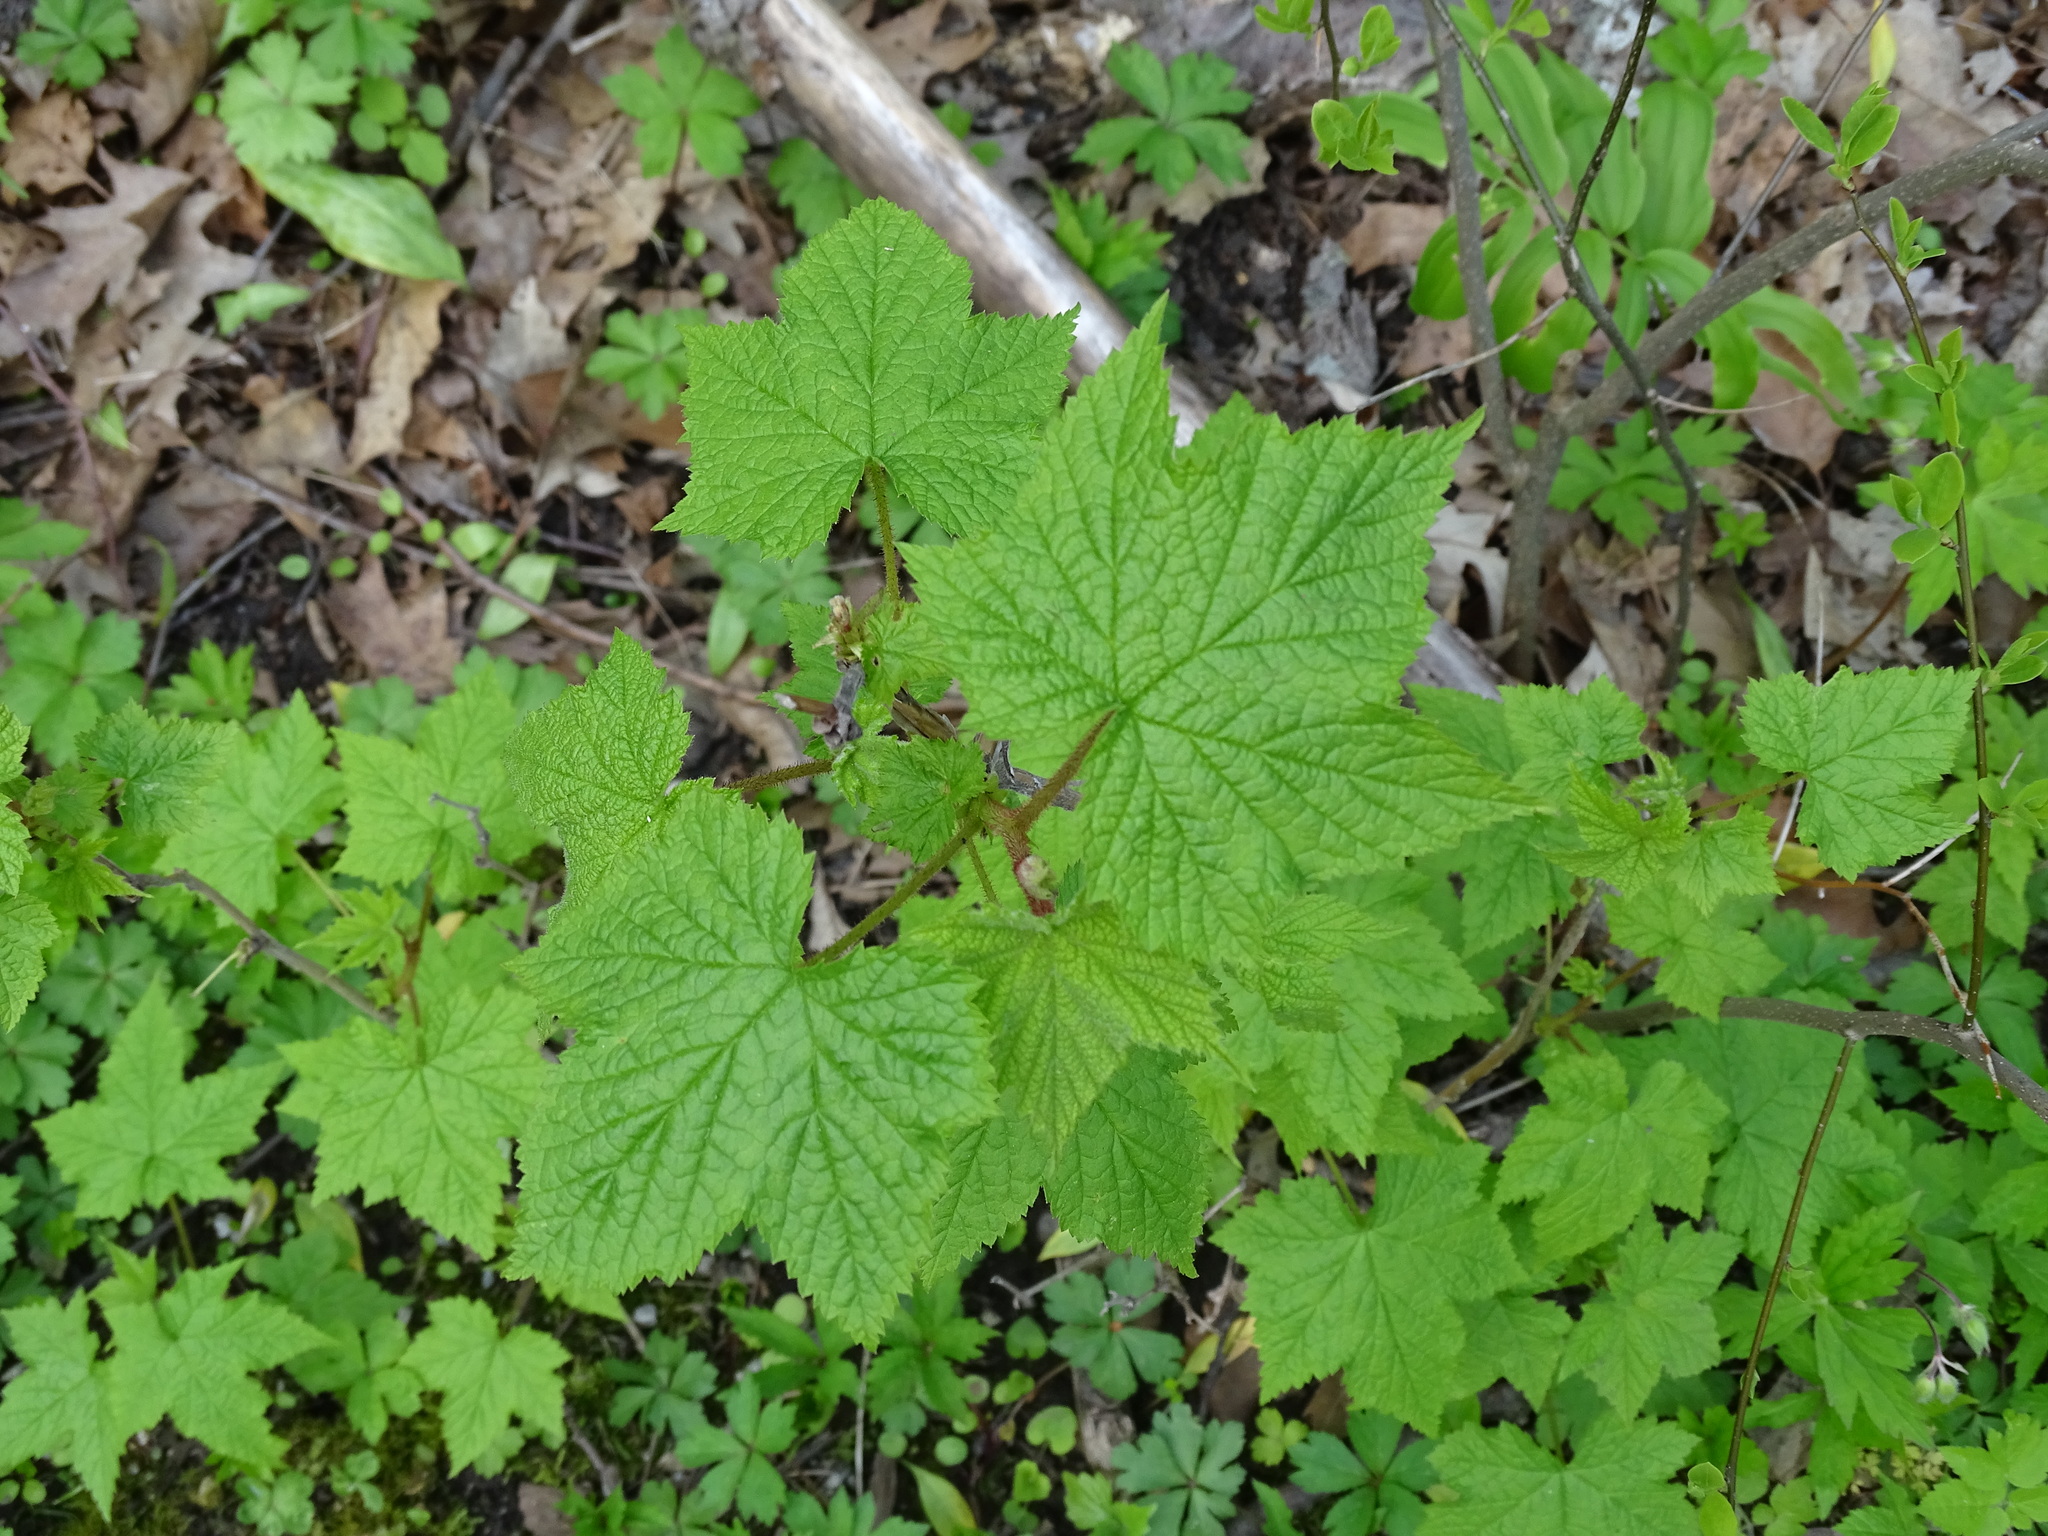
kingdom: Plantae
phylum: Tracheophyta
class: Magnoliopsida
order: Rosales
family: Rosaceae
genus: Rubus
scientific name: Rubus odoratus
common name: Purple-flowered raspberry
